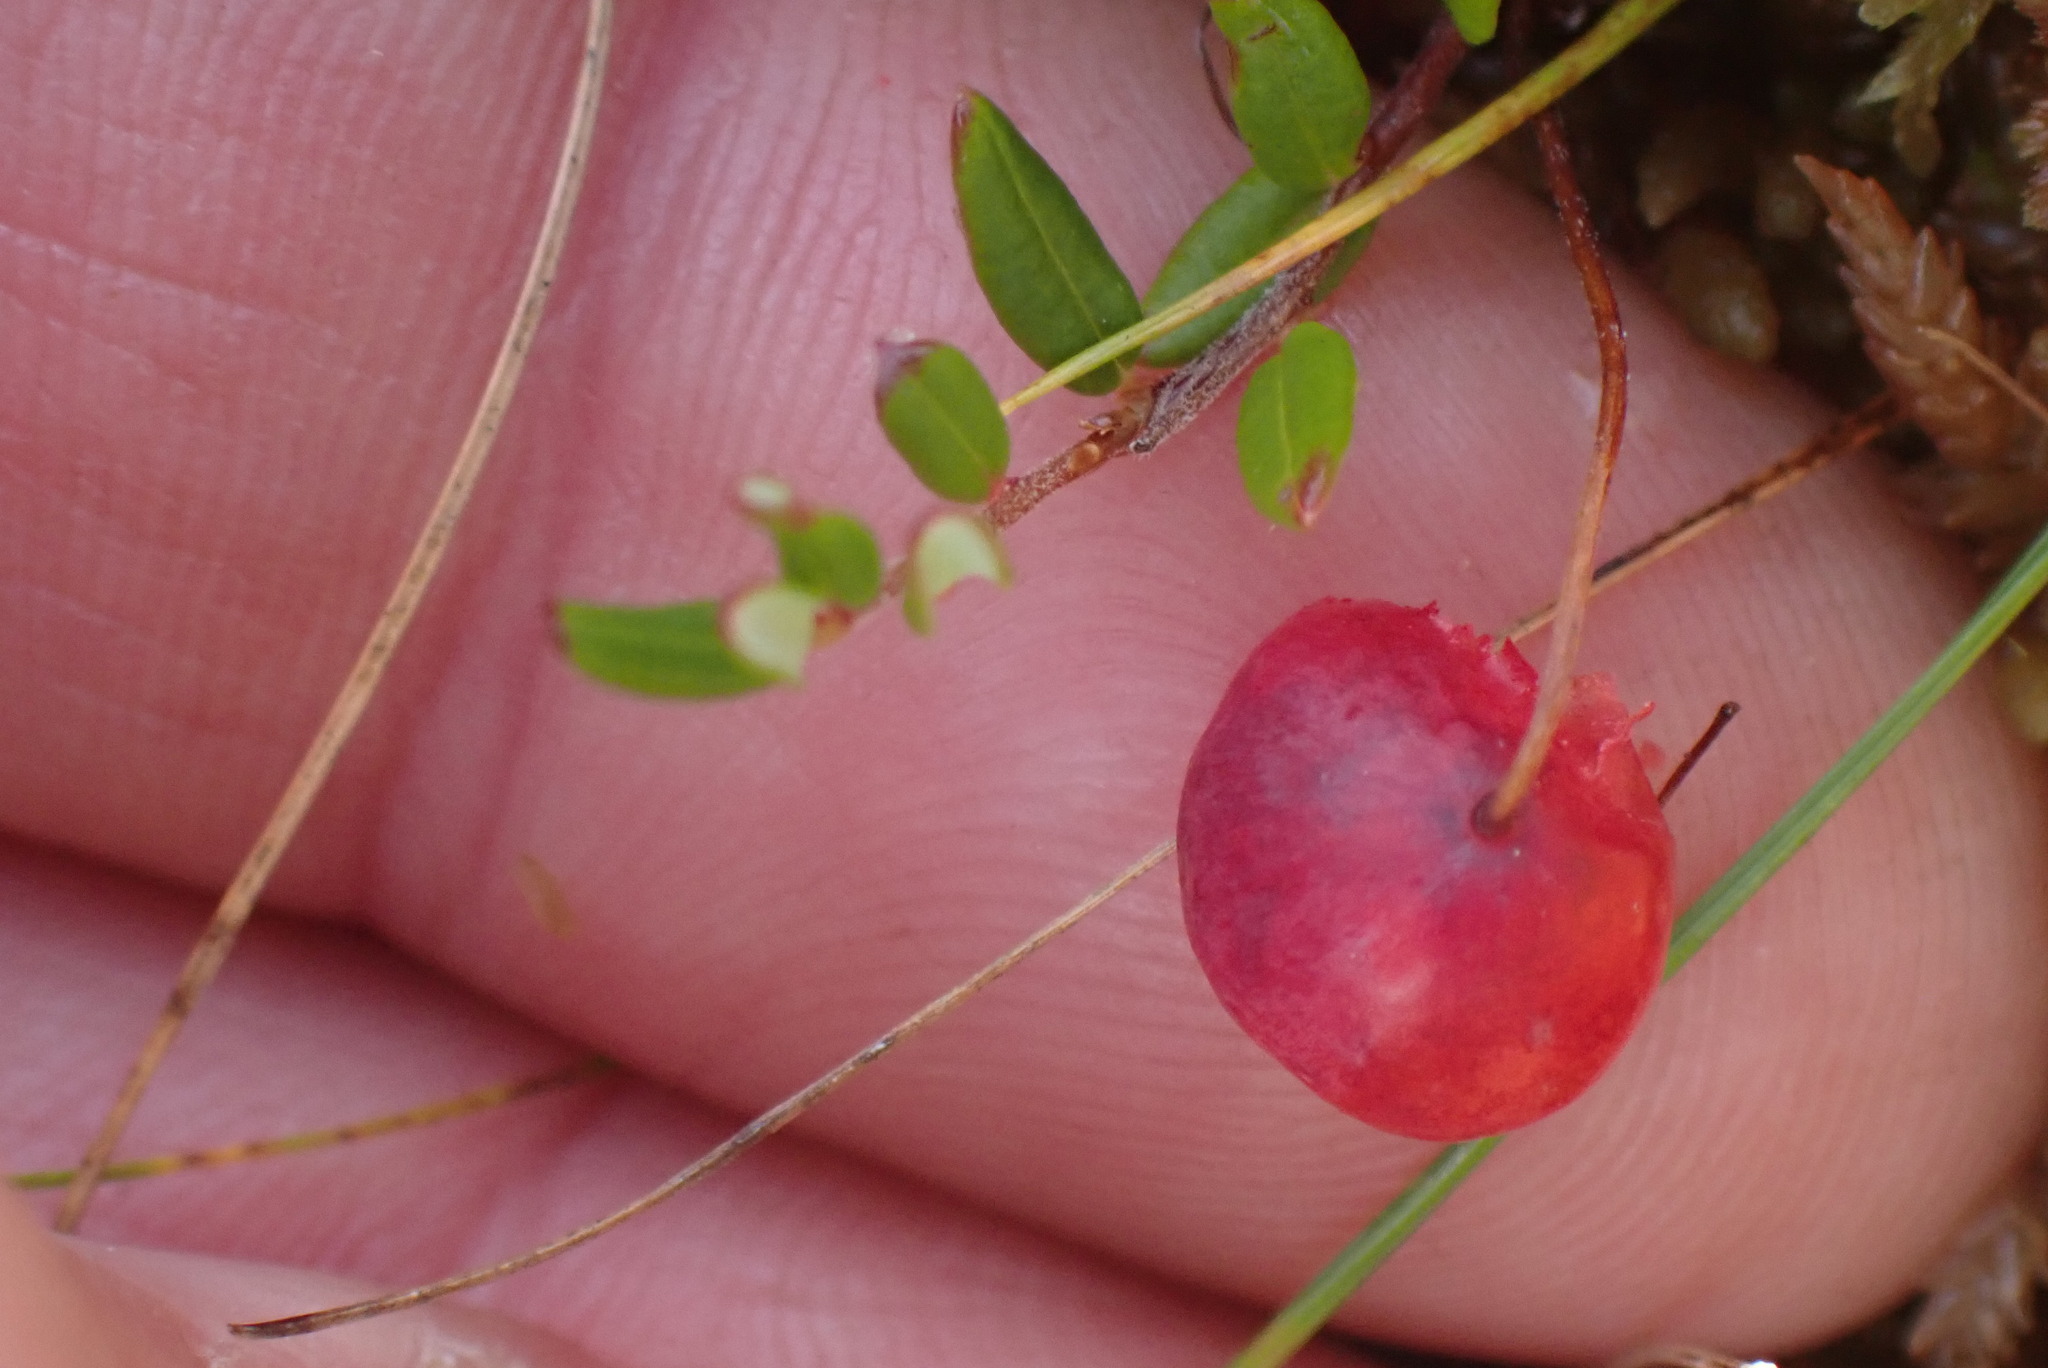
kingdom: Plantae
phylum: Tracheophyta
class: Magnoliopsida
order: Ericales
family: Ericaceae
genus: Vaccinium
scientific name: Vaccinium oxycoccos
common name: Cranberry
